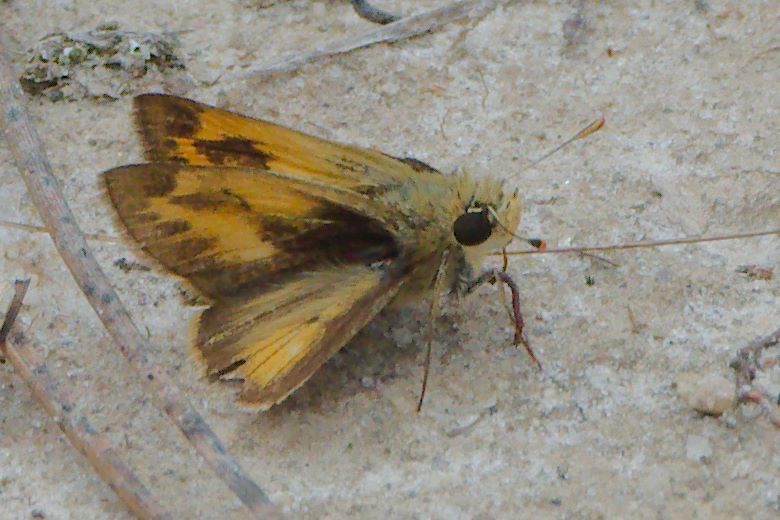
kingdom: Animalia
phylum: Arthropoda
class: Insecta
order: Lepidoptera
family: Hesperiidae
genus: Polites
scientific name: Polites vibex
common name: Whirlabout
